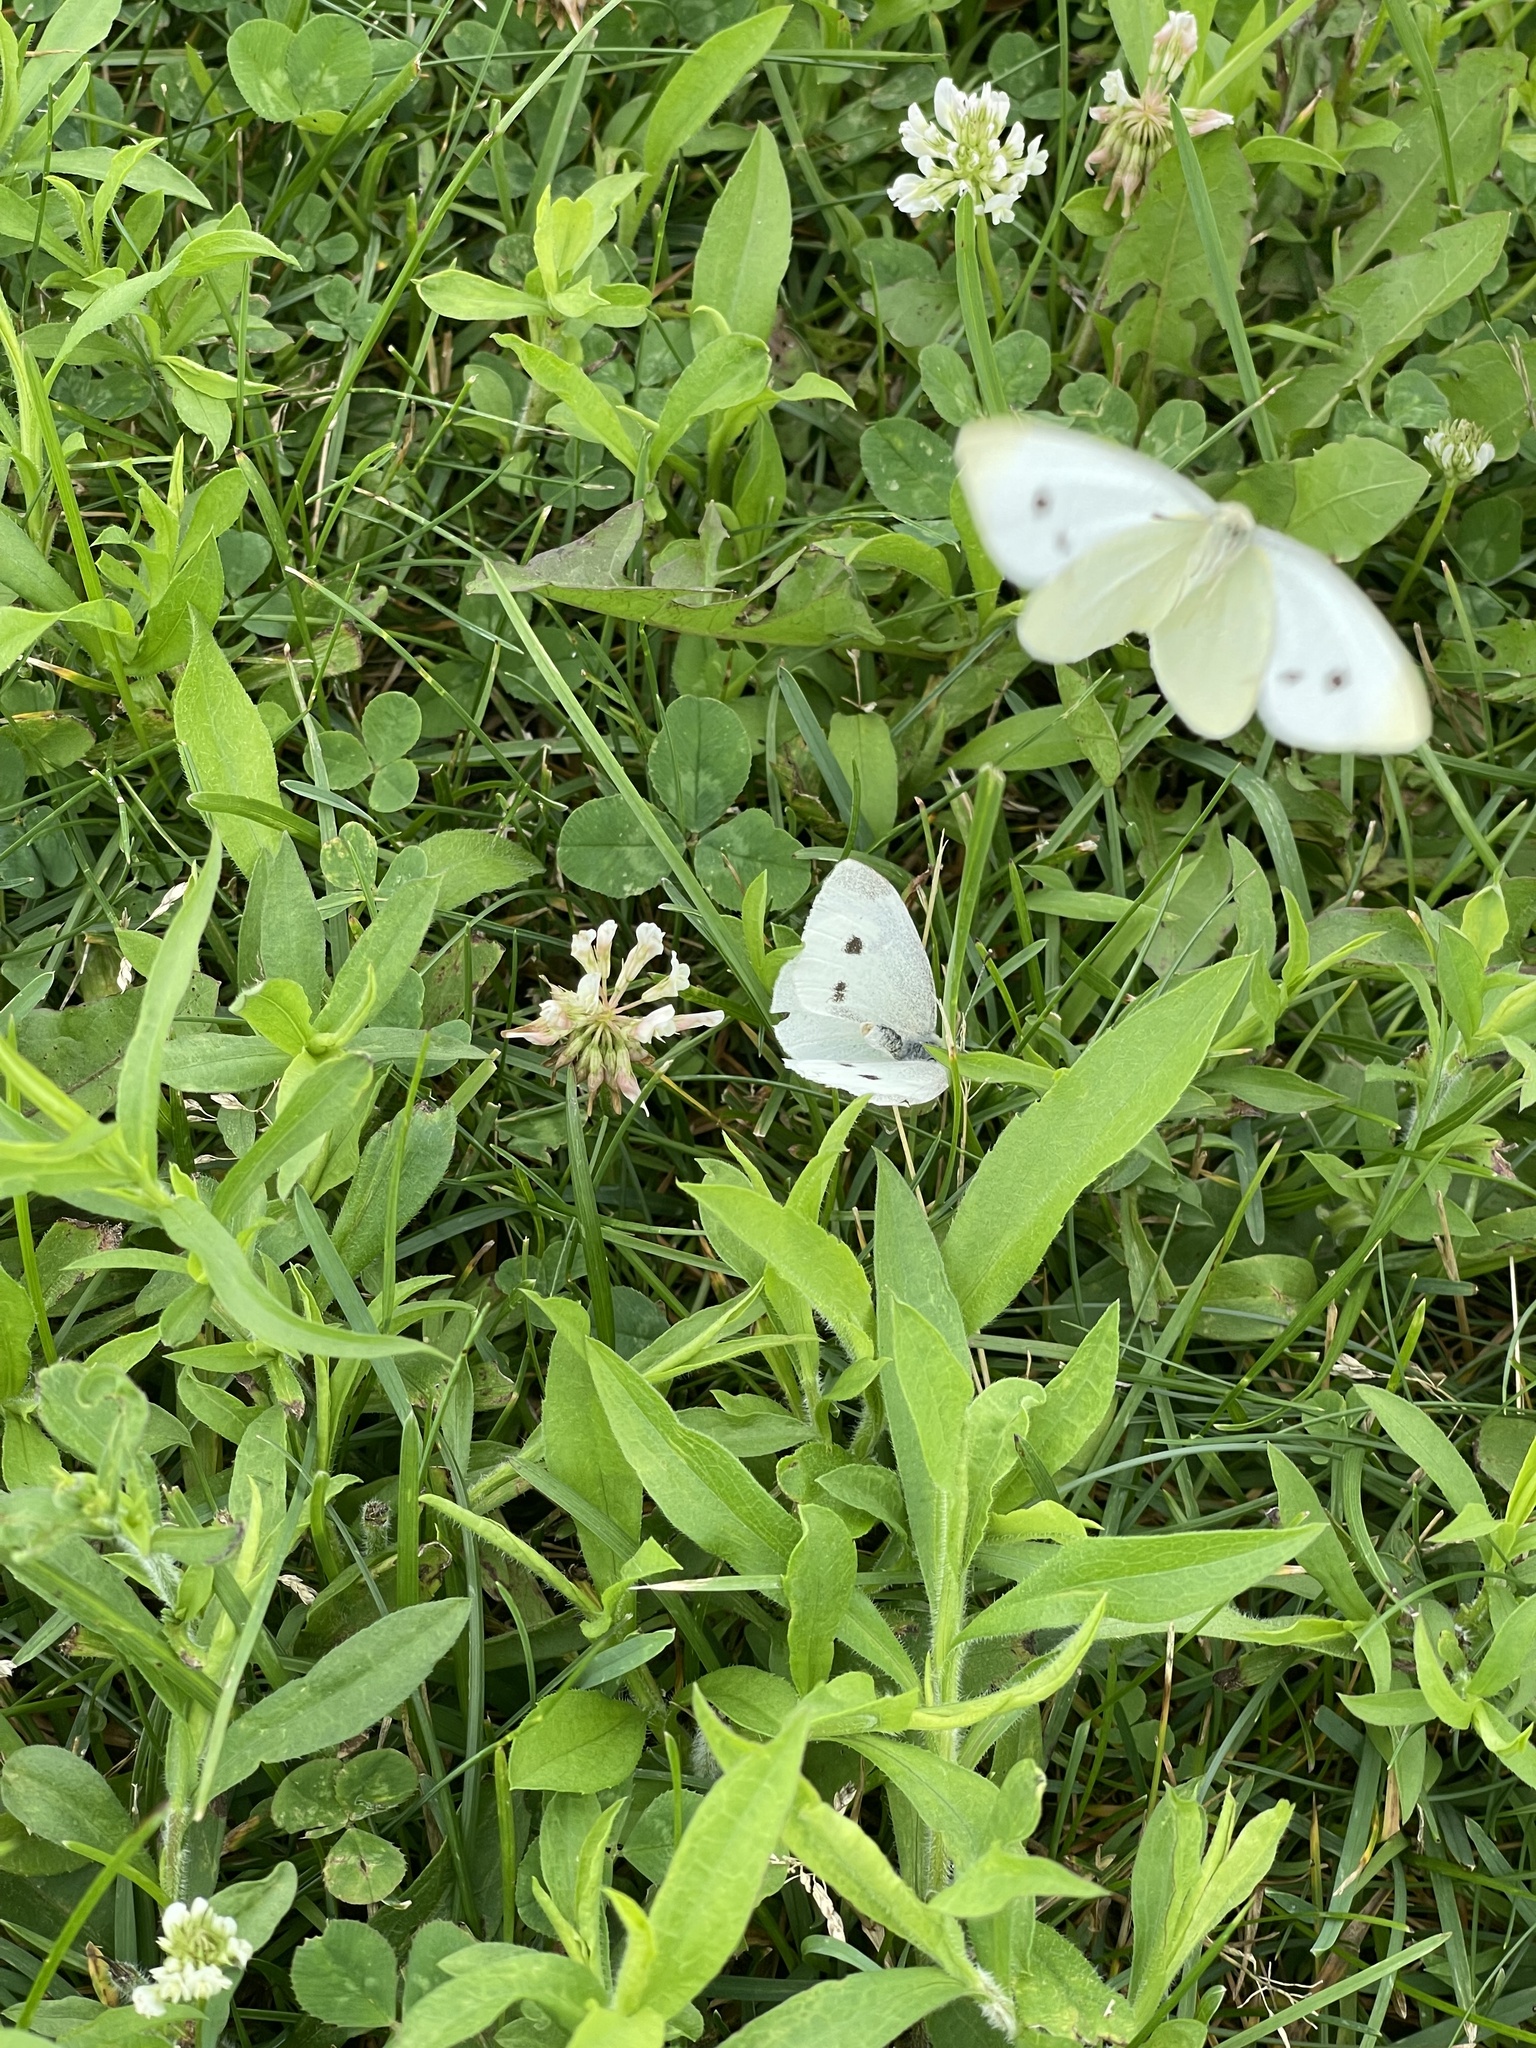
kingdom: Animalia
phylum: Arthropoda
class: Insecta
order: Lepidoptera
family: Pieridae
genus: Pieris
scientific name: Pieris rapae
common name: Small white
